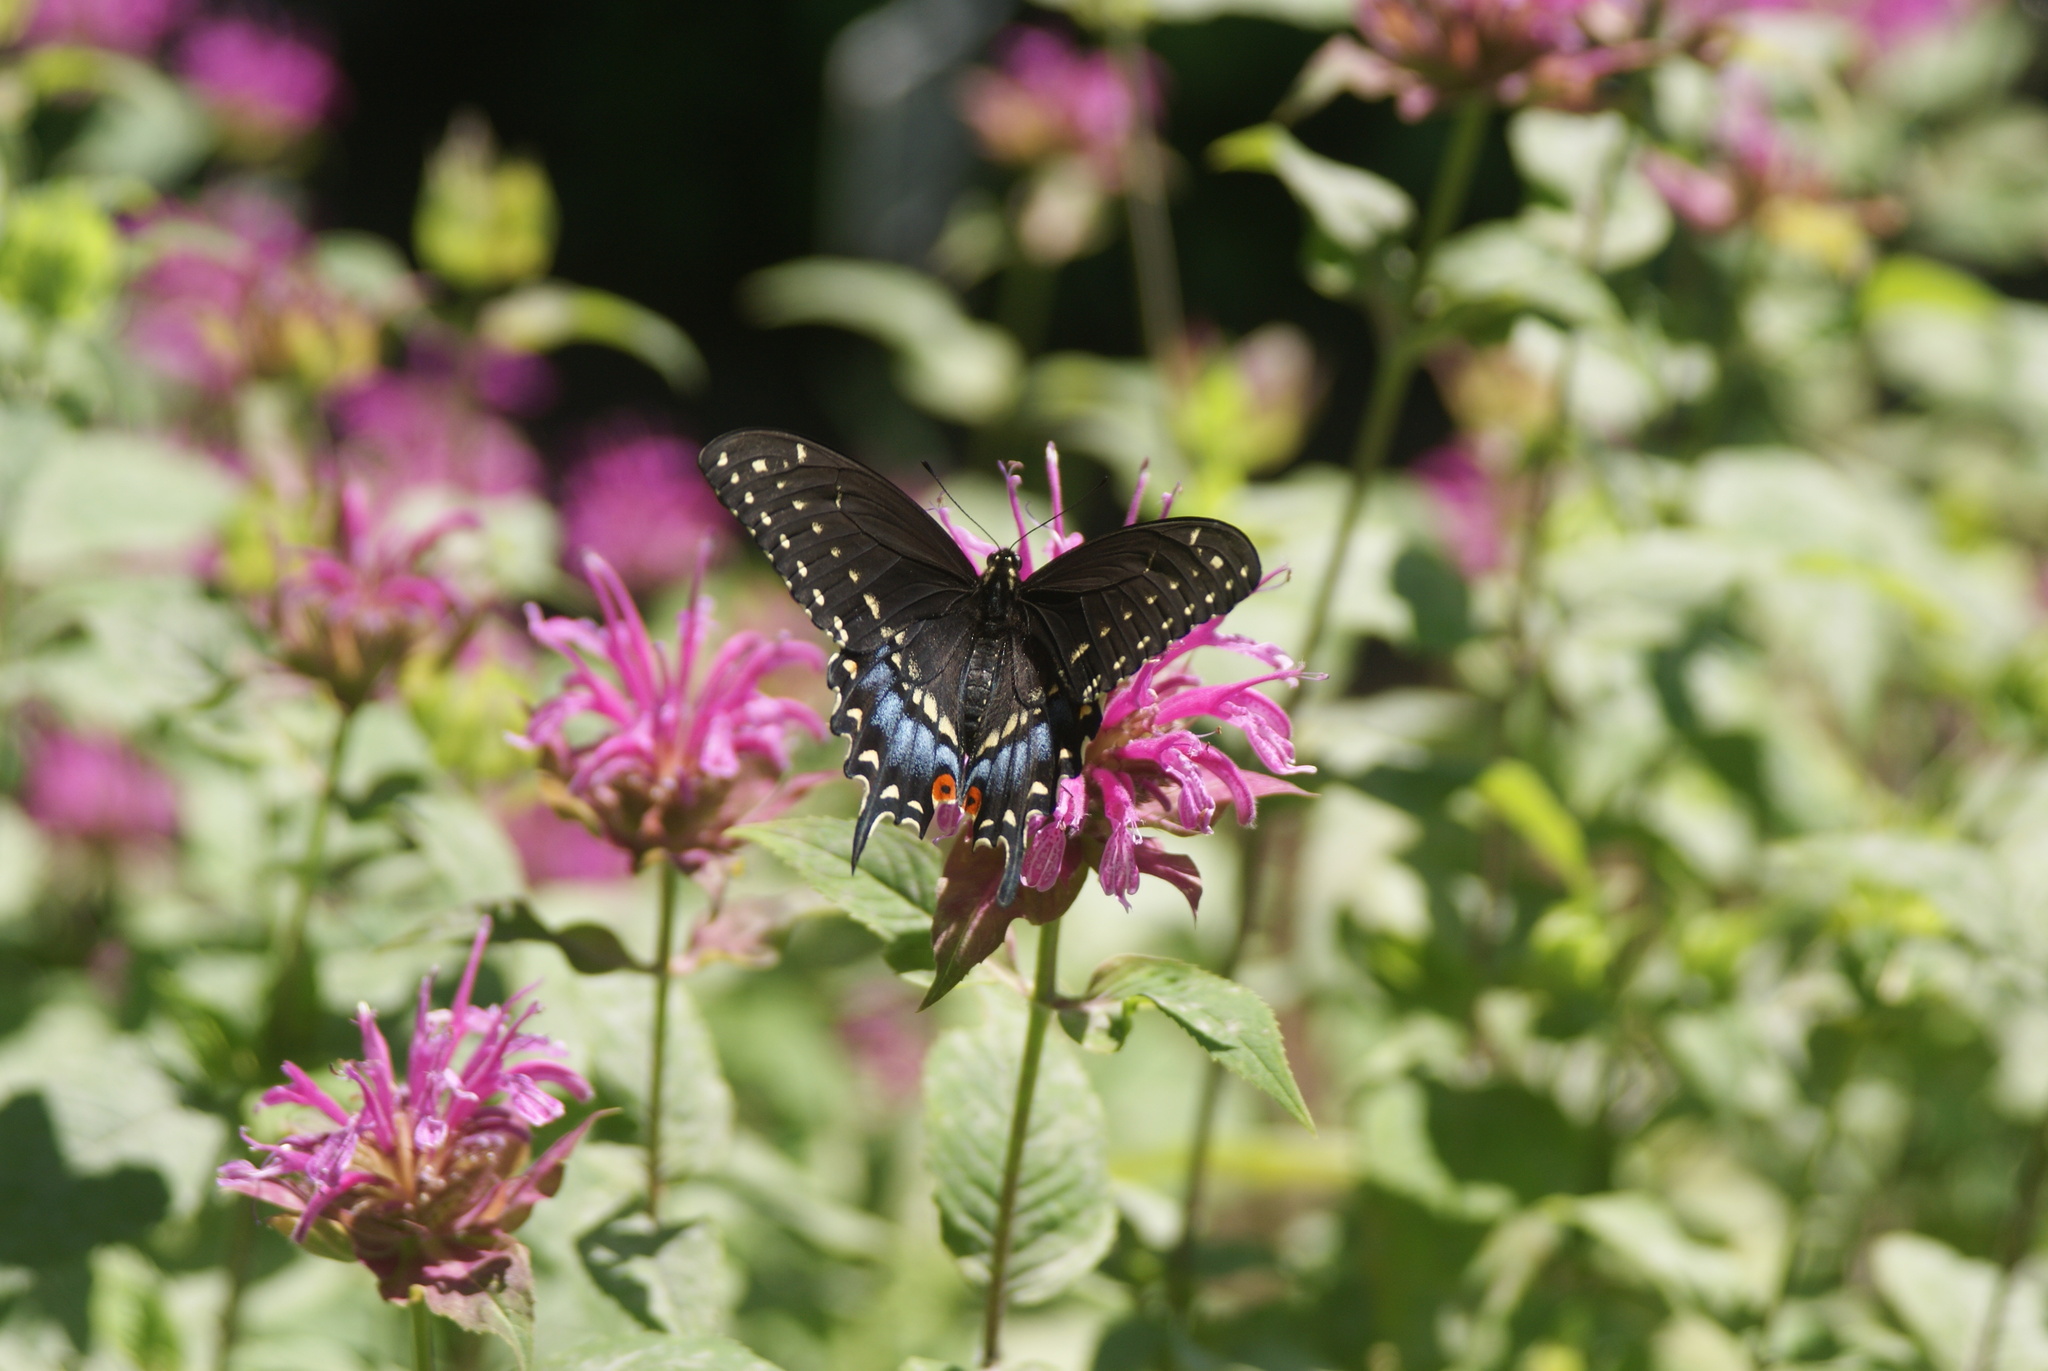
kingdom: Animalia
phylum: Arthropoda
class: Insecta
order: Lepidoptera
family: Papilionidae
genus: Papilio
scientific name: Papilio polyxenes
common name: Black swallowtail
